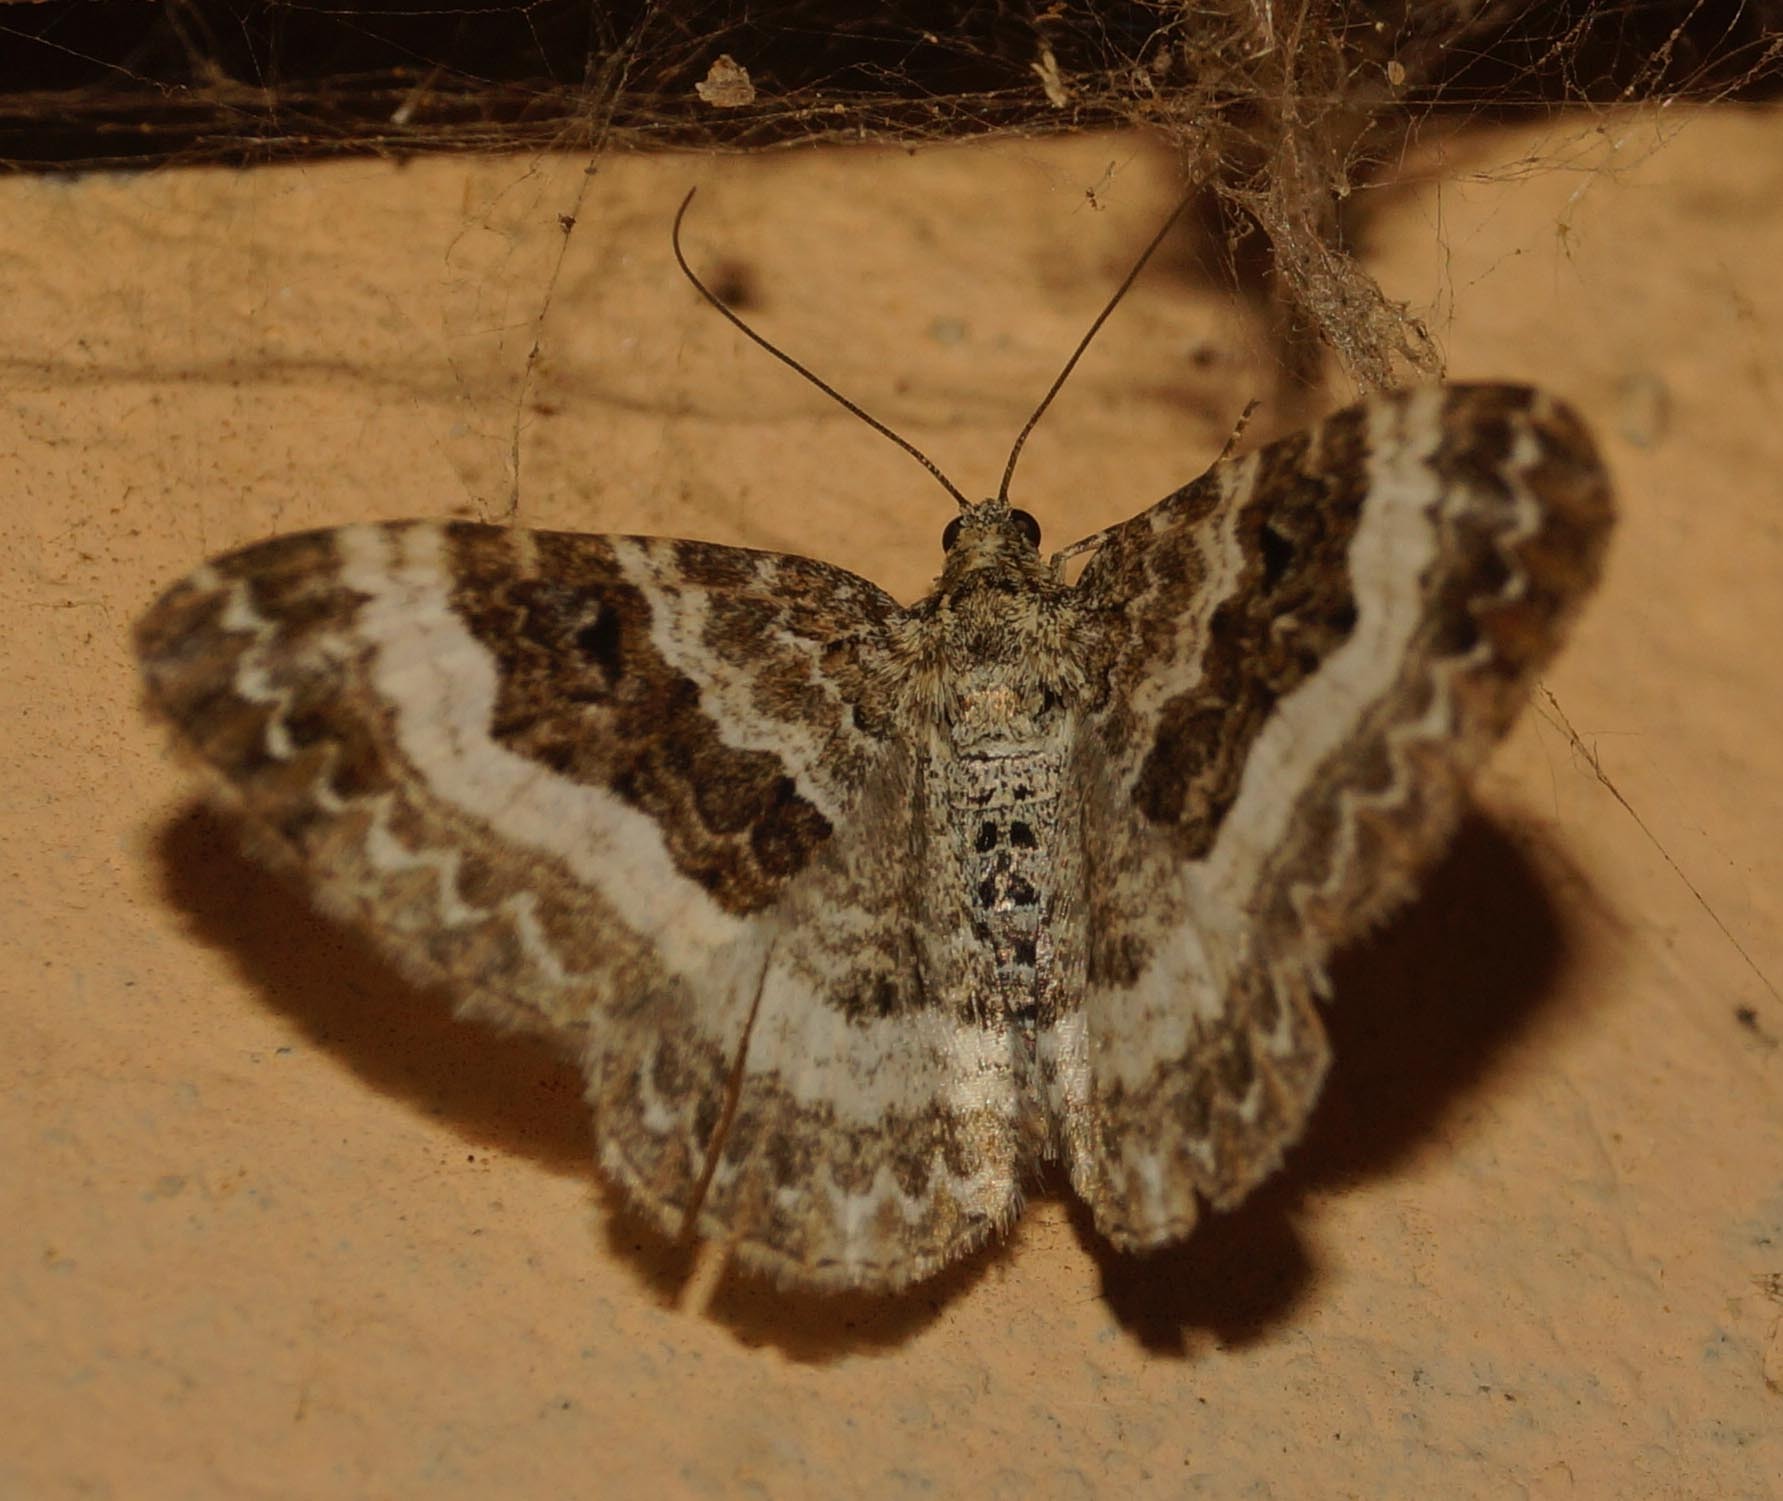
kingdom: Animalia
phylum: Arthropoda
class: Insecta
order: Lepidoptera
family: Geometridae
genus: Epirrhoe
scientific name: Epirrhoe alternata
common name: Common carpet
